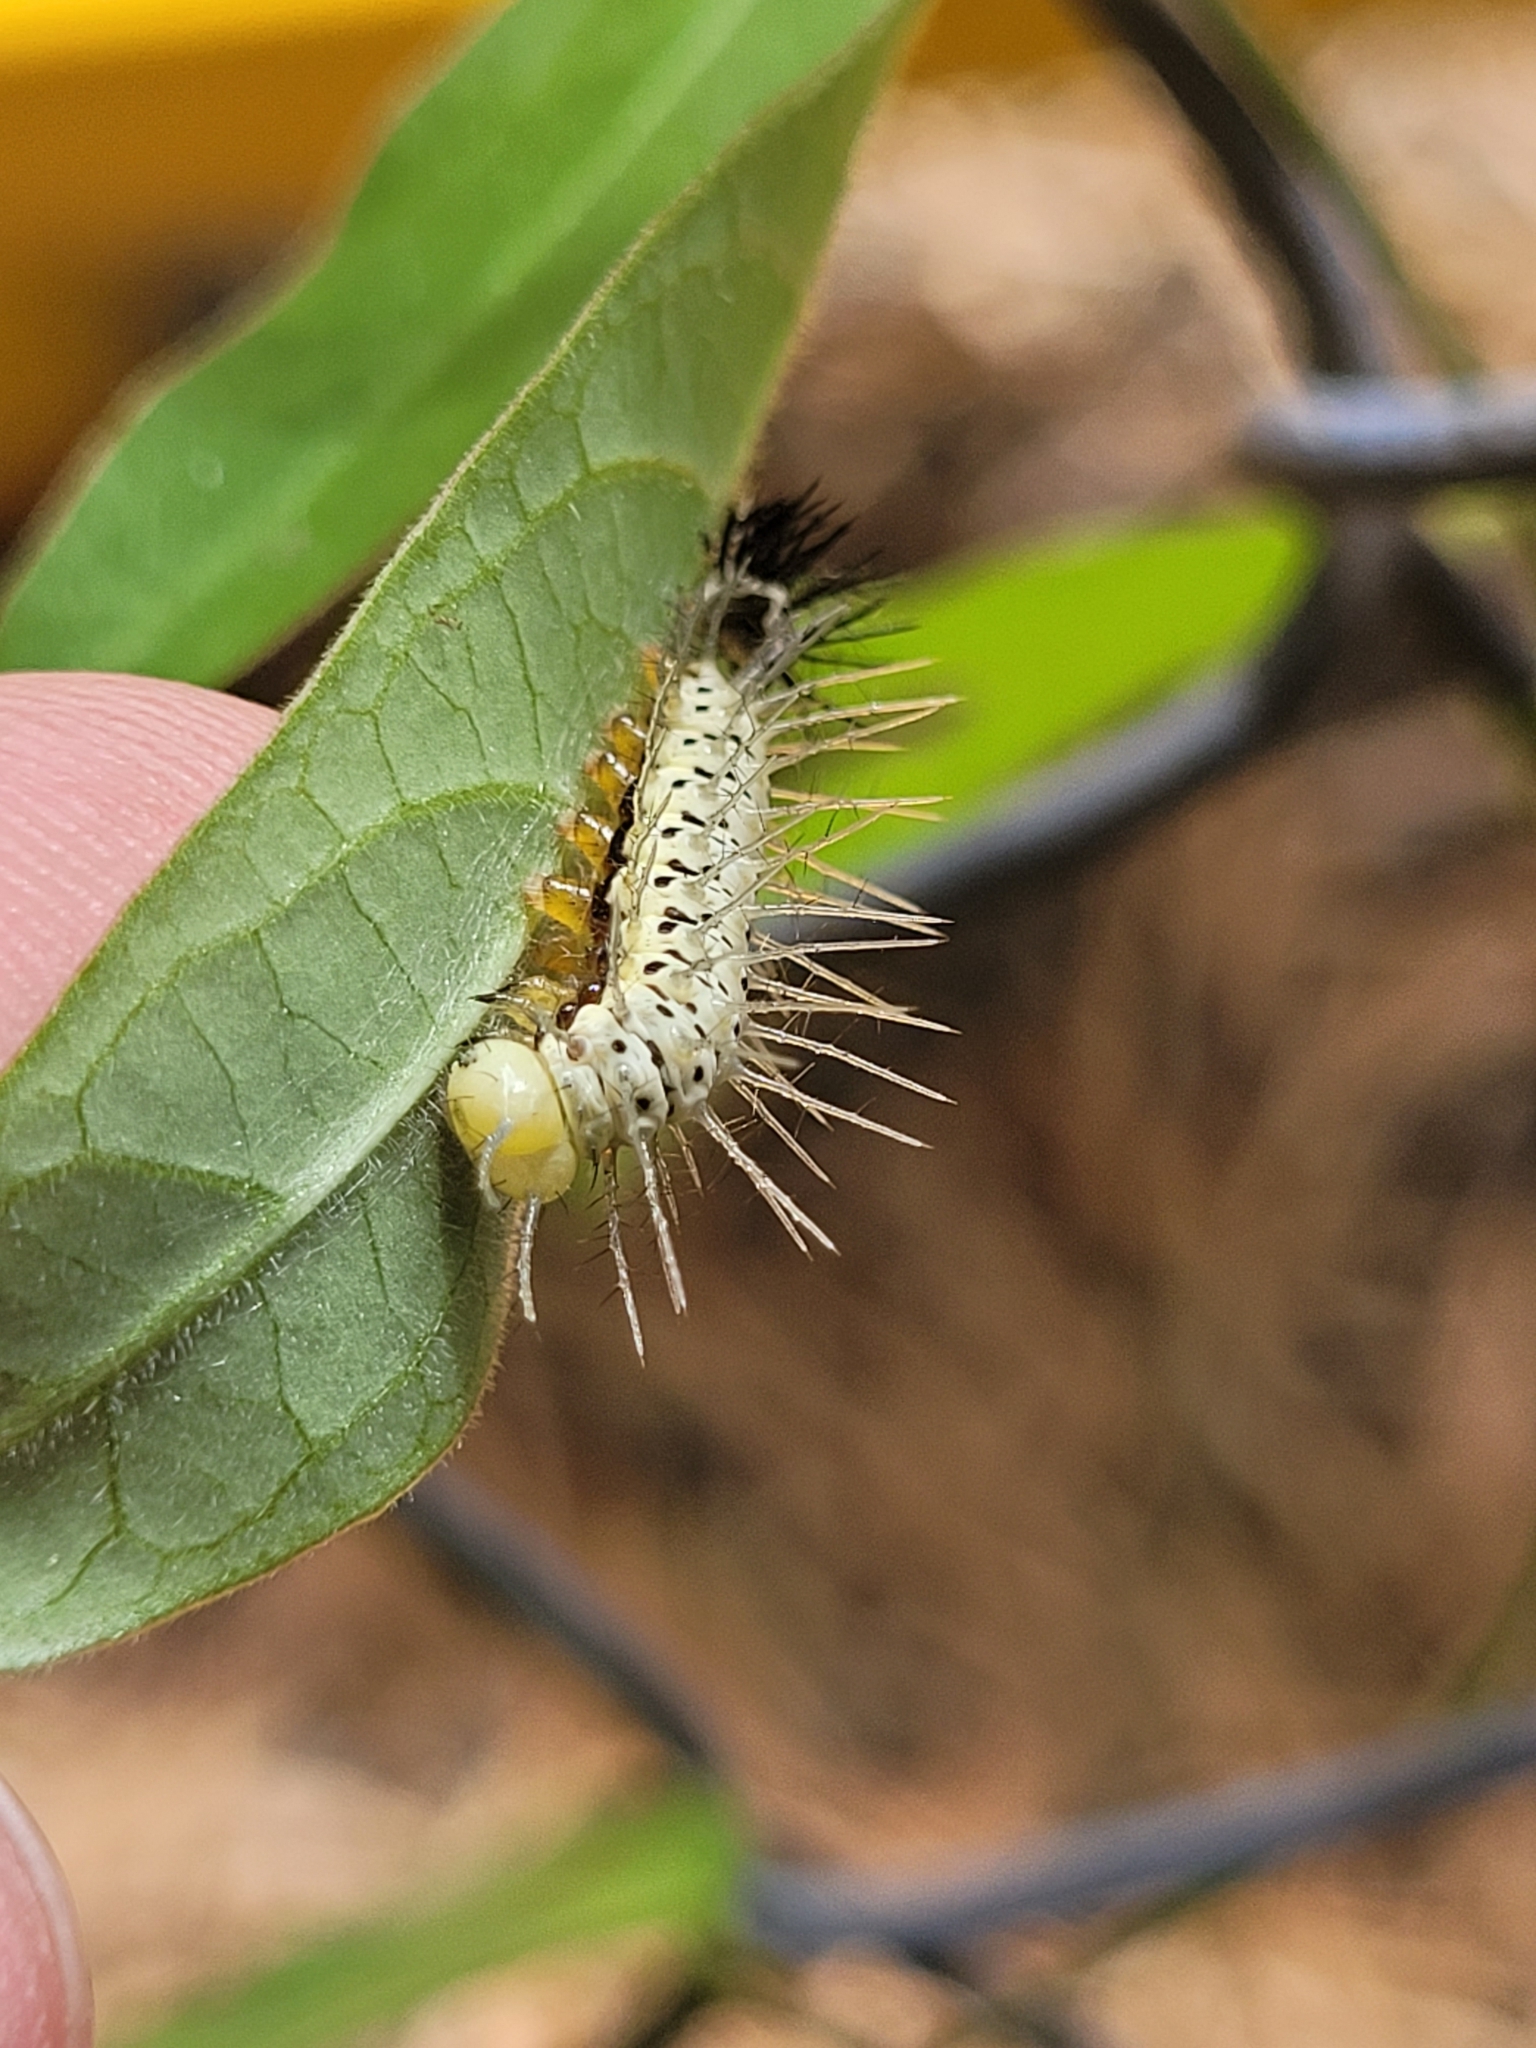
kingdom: Animalia
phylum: Arthropoda
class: Insecta
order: Lepidoptera
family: Nymphalidae
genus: Heliconius
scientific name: Heliconius charithonia
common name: Zebra long wing
